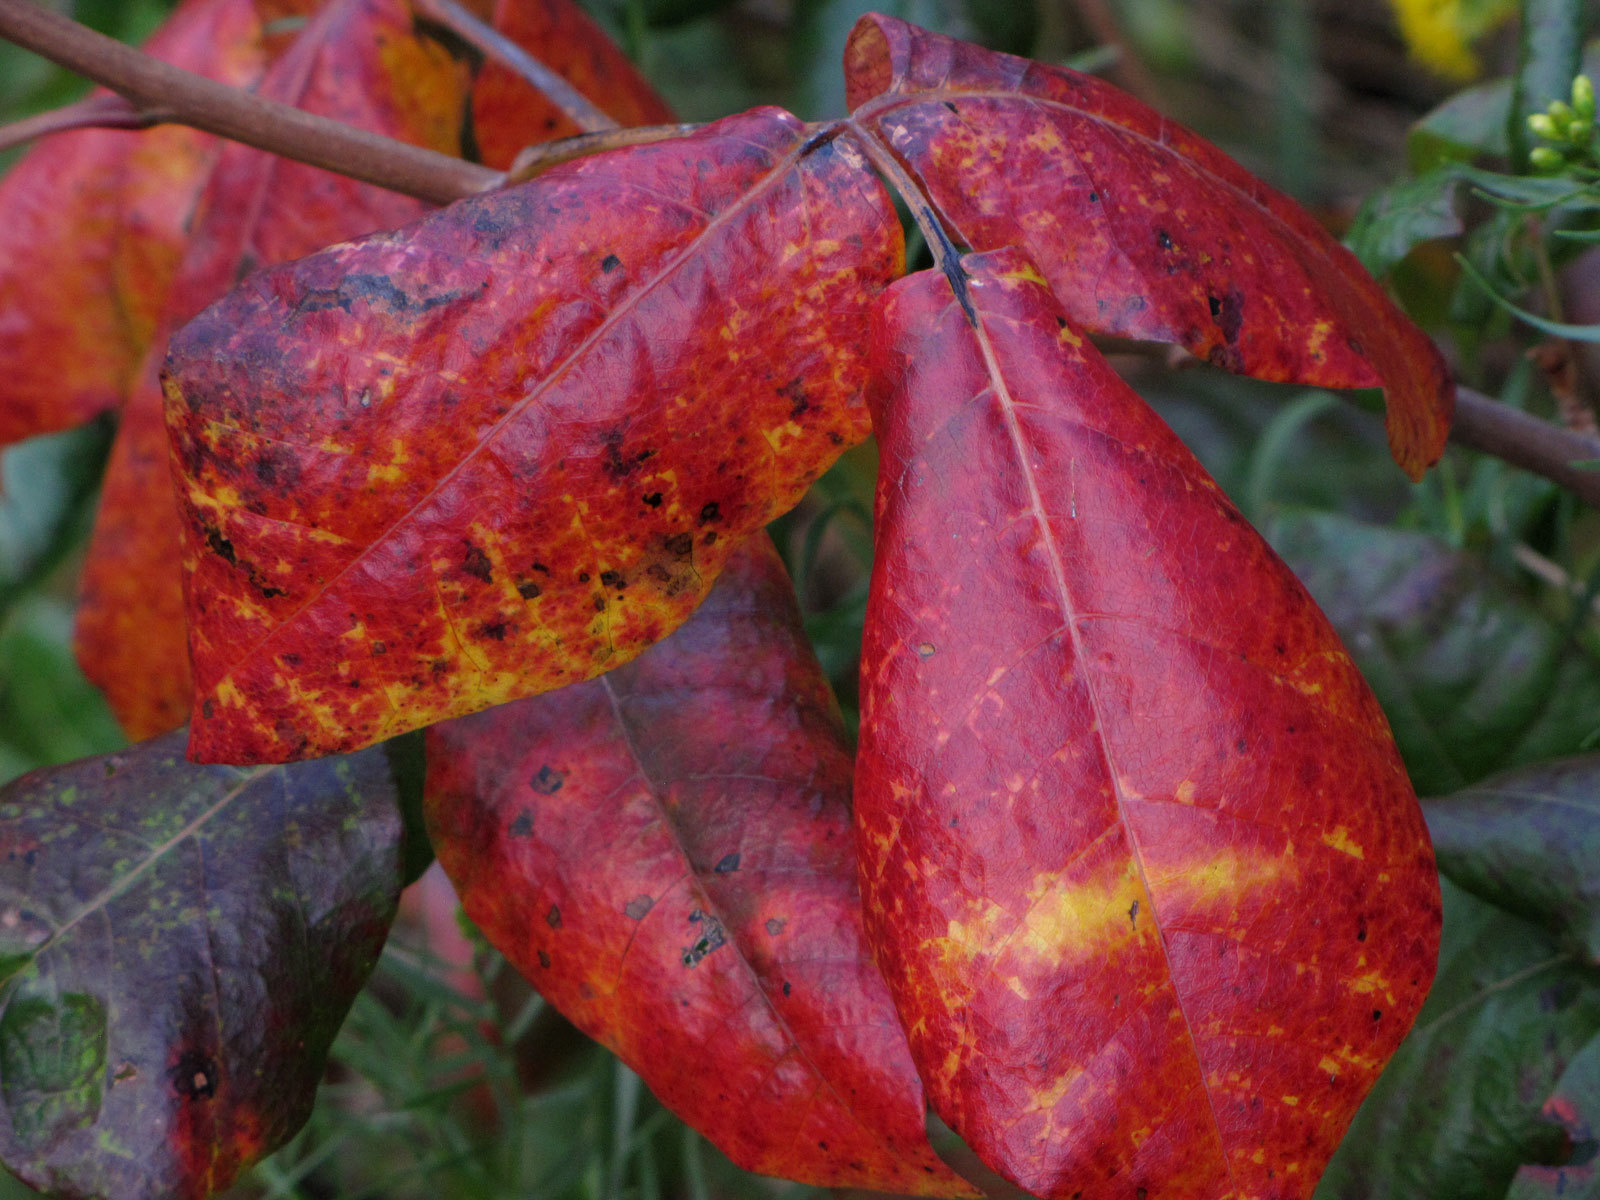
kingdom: Plantae
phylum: Tracheophyta
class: Magnoliopsida
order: Sapindales
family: Anacardiaceae
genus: Toxicodendron
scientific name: Toxicodendron radicans
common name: Poison ivy
